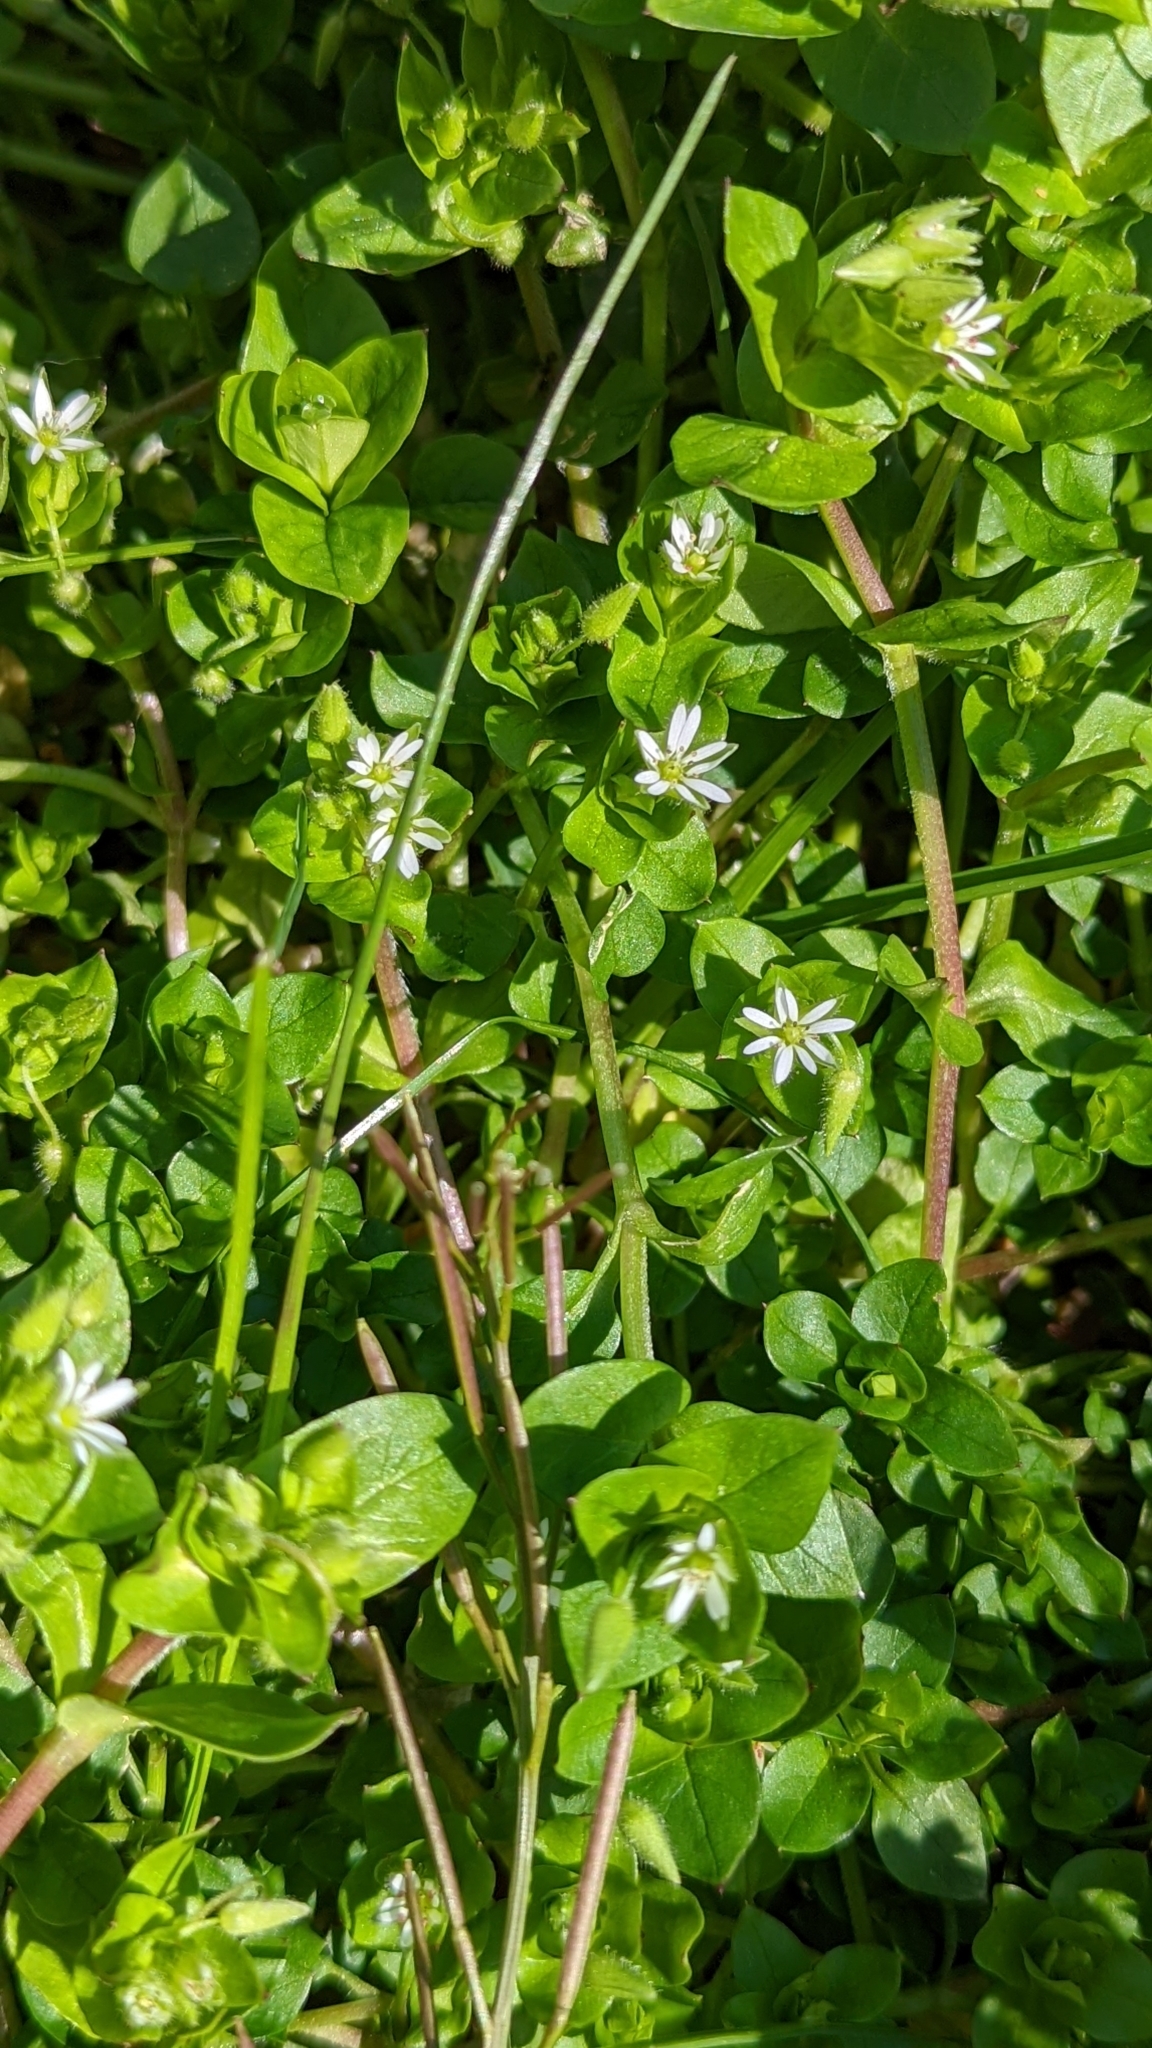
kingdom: Plantae
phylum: Tracheophyta
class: Magnoliopsida
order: Caryophyllales
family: Caryophyllaceae
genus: Stellaria
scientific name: Stellaria media
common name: Common chickweed
